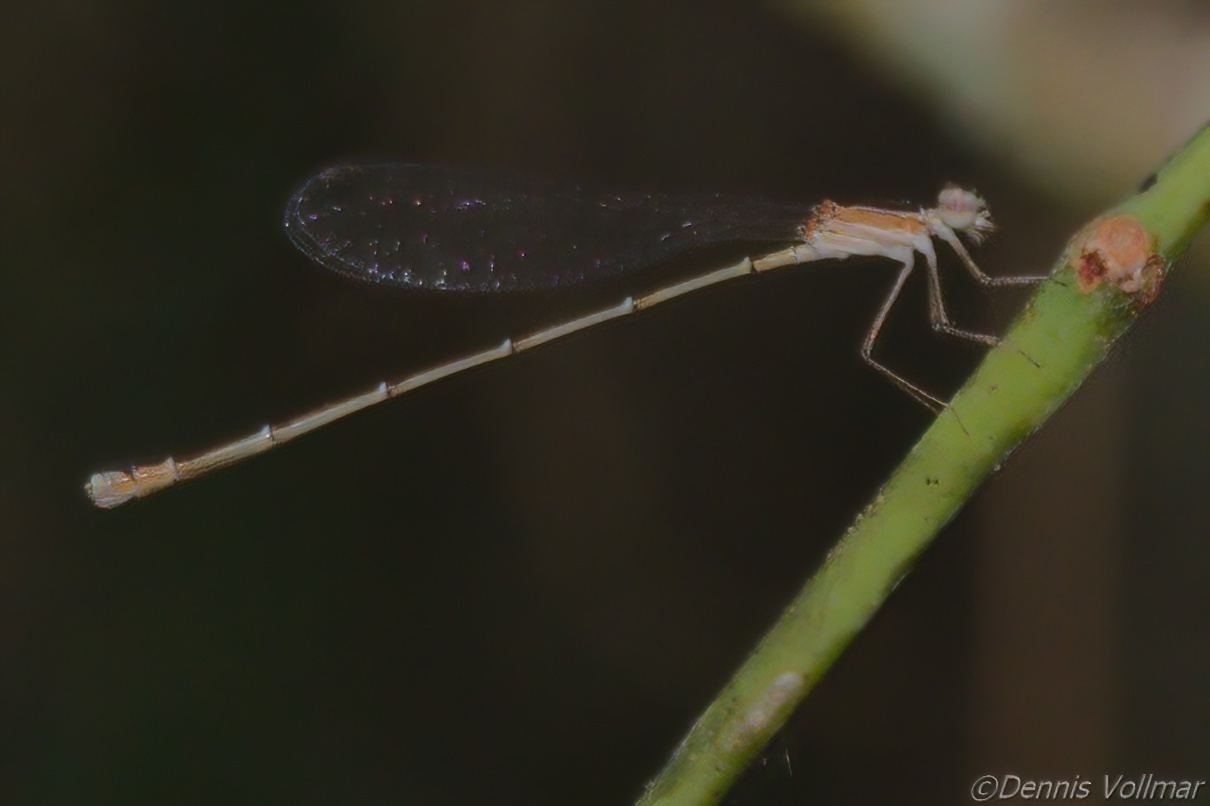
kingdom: Animalia
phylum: Arthropoda
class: Insecta
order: Odonata
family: Coenagrionidae
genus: Nehalennia
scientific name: Nehalennia pallidula
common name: Everglades sprite
